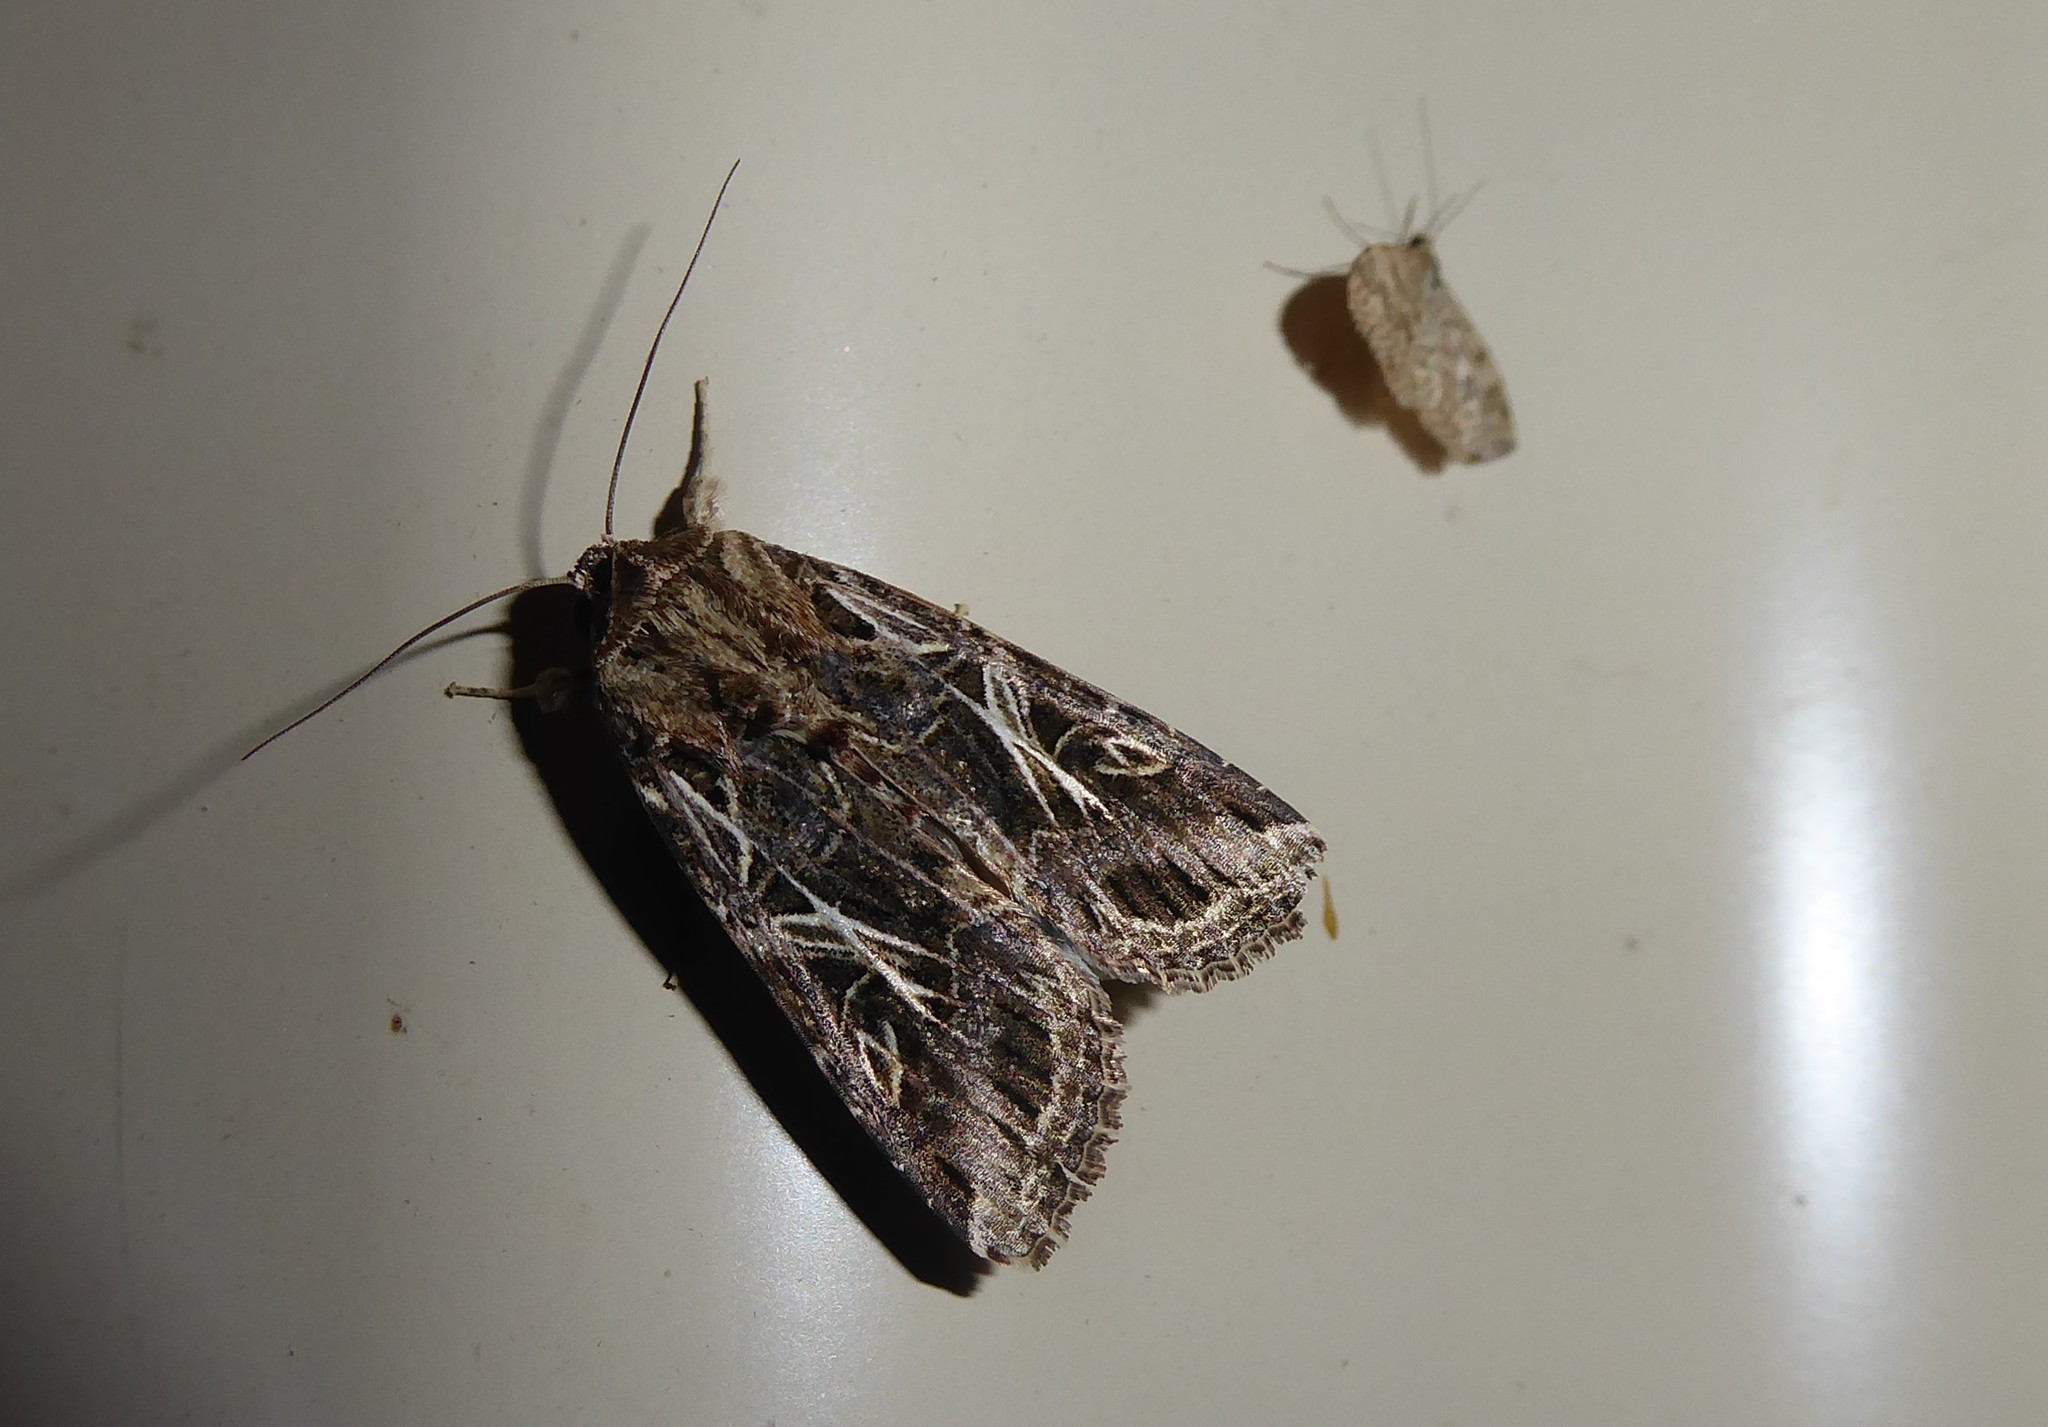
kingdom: Animalia
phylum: Arthropoda
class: Insecta
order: Lepidoptera
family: Noctuidae
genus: Spodoptera
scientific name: Spodoptera litura
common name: Asian cotton leafworm
